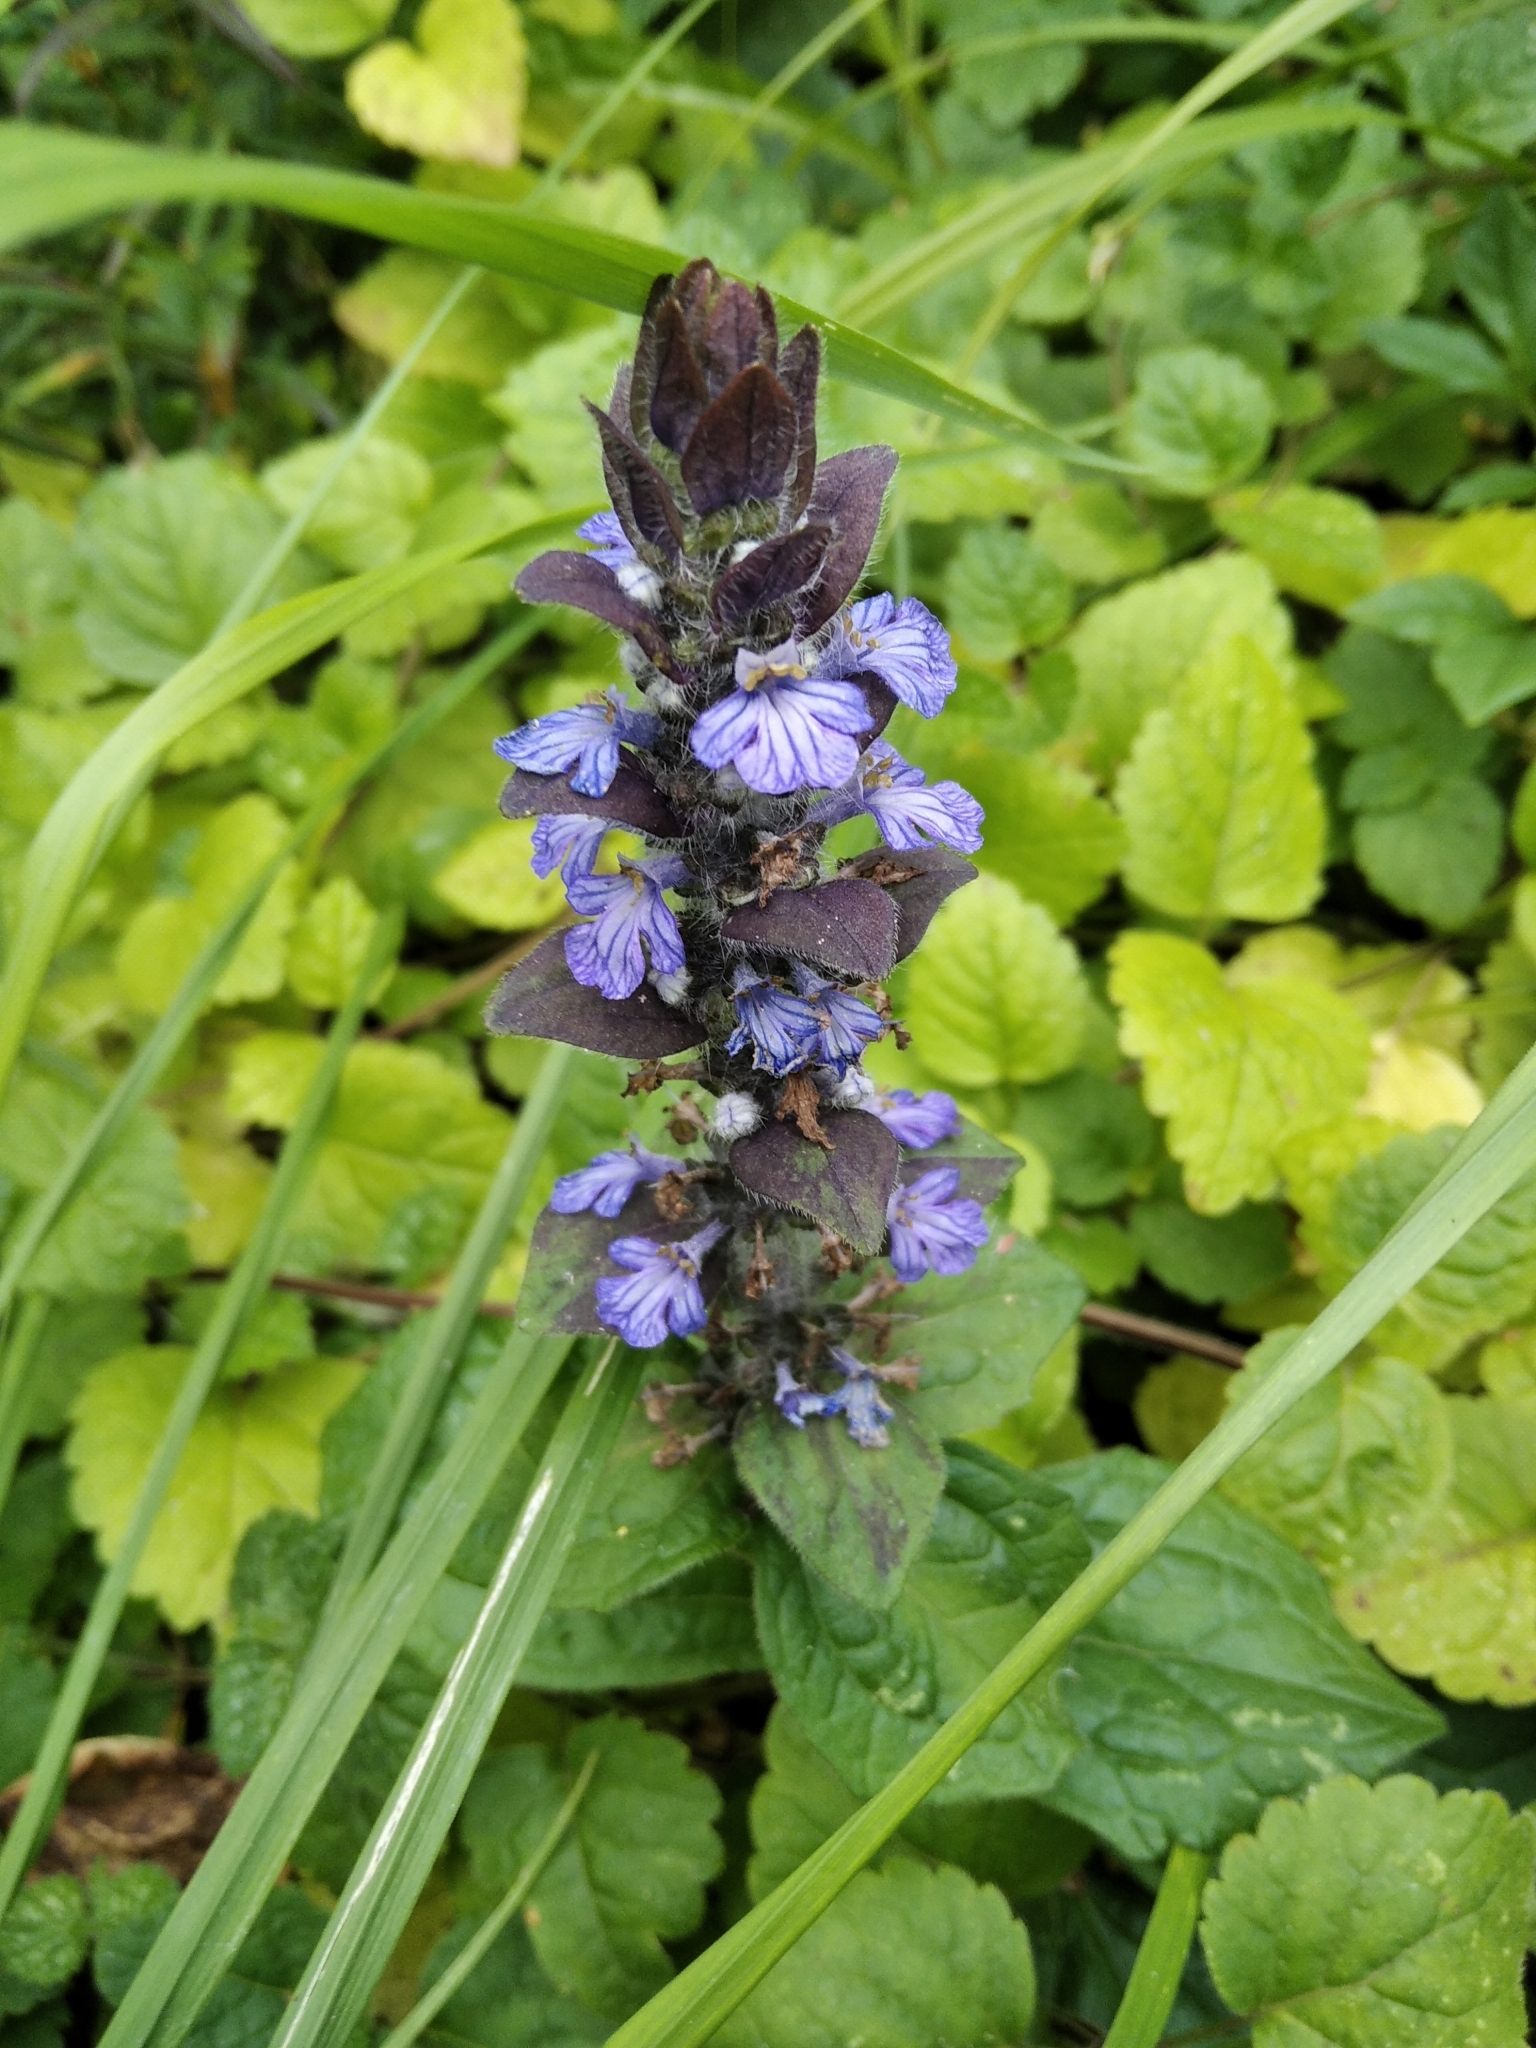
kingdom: Plantae
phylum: Tracheophyta
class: Magnoliopsida
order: Lamiales
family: Lamiaceae
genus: Ajuga
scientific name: Ajuga reptans
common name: Bugle
